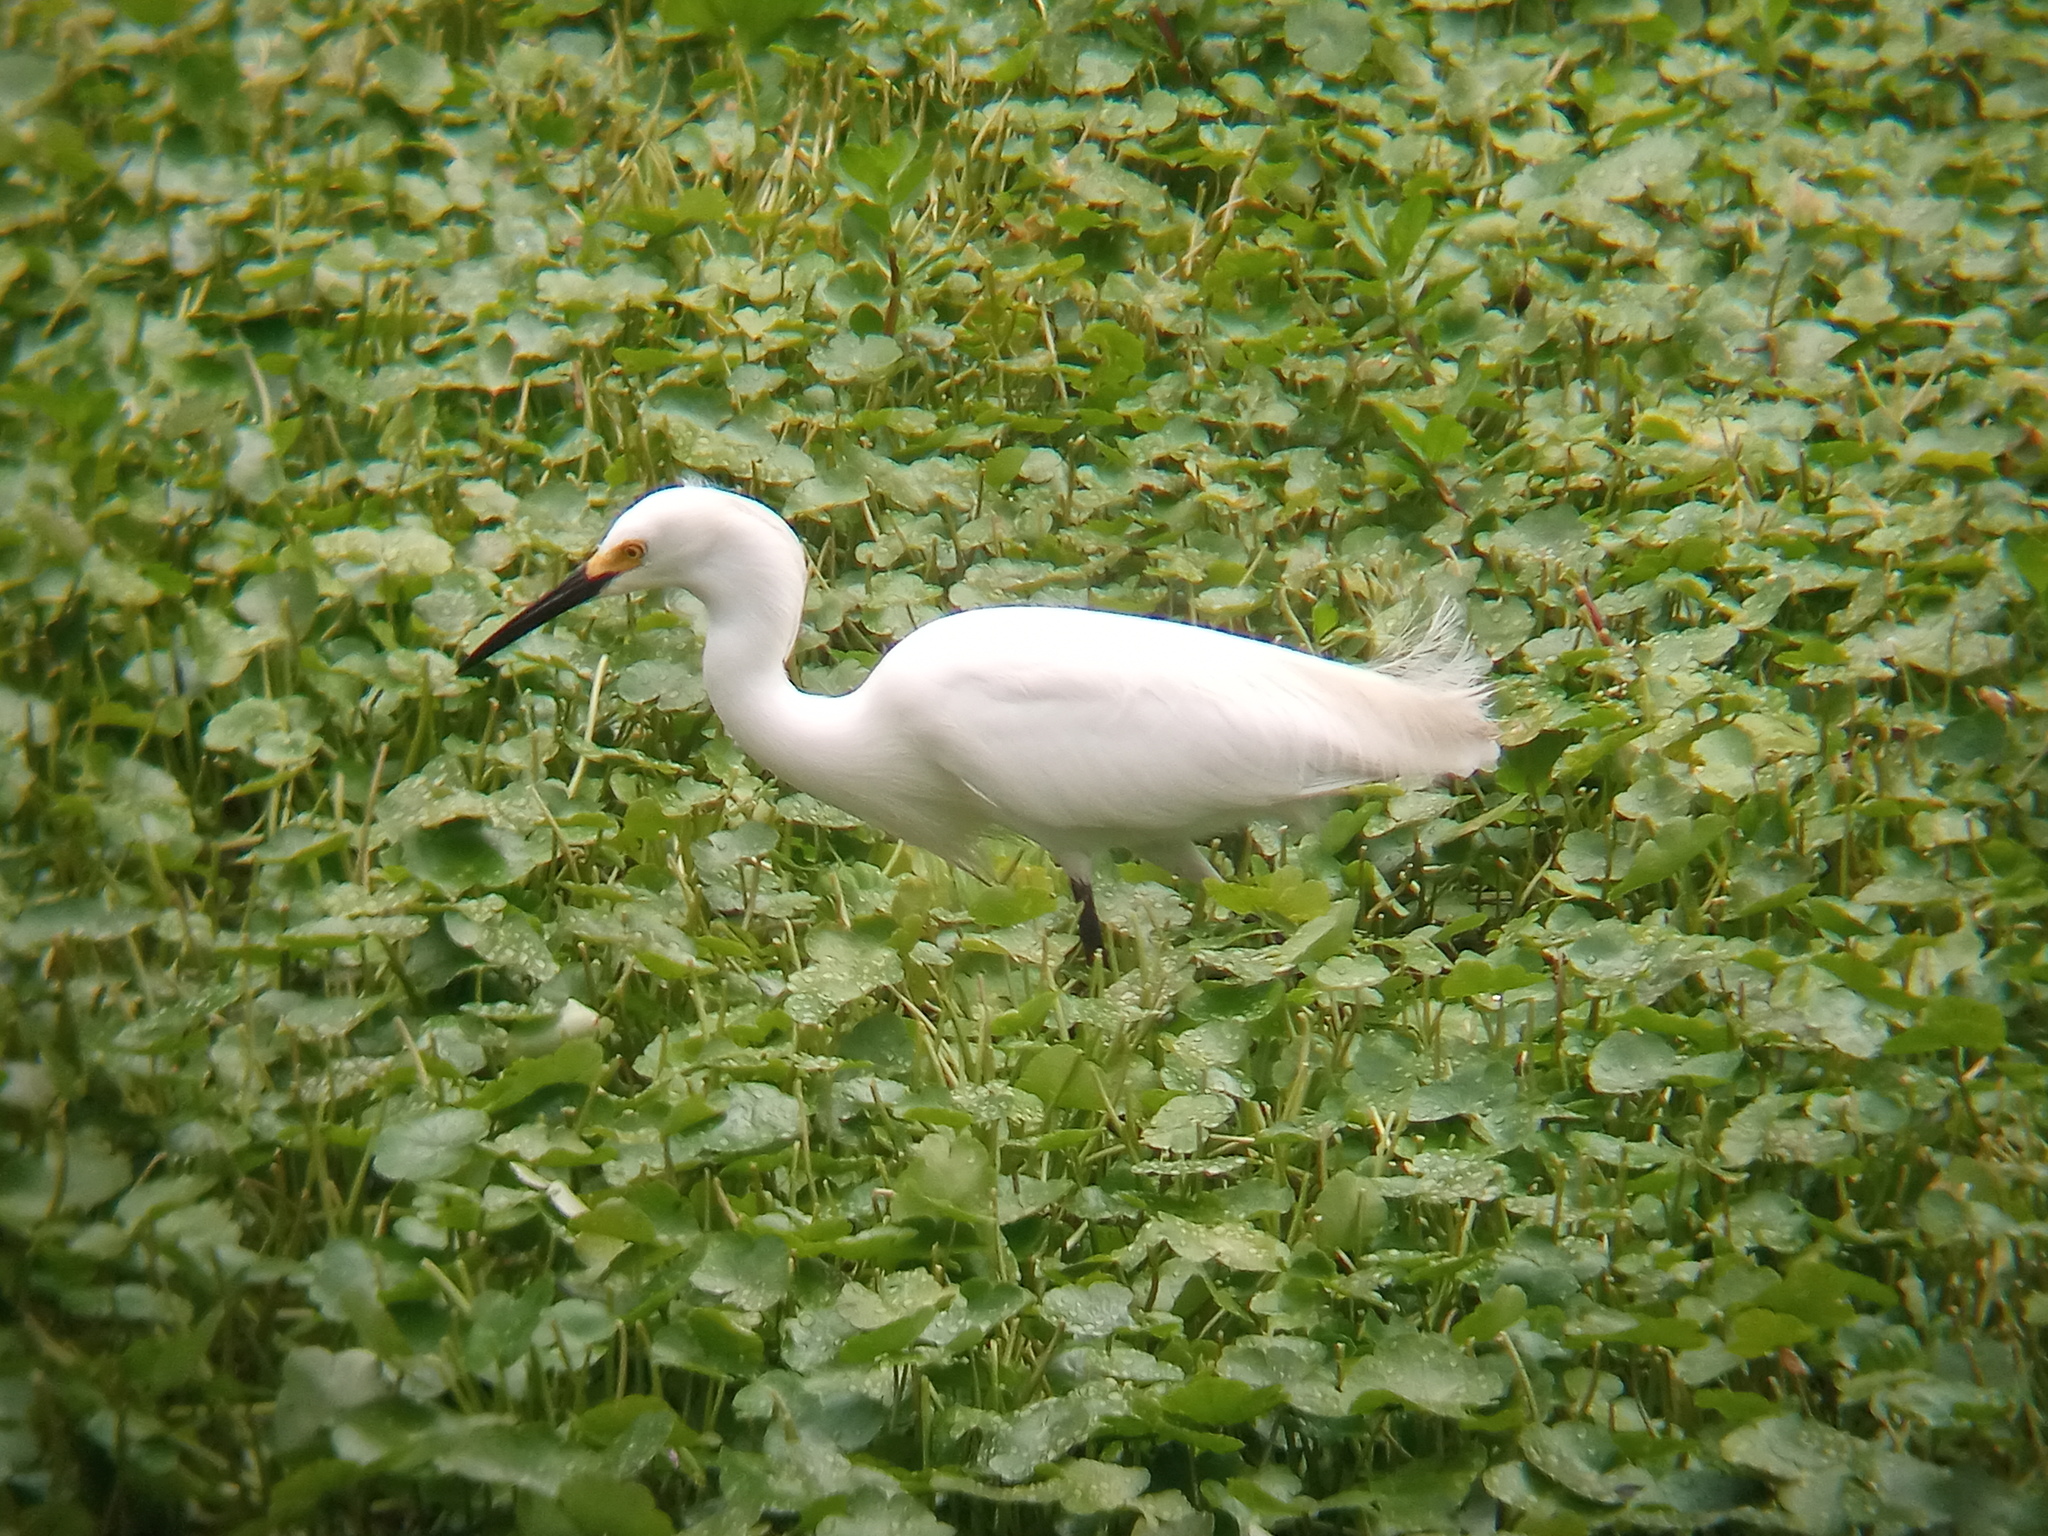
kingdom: Animalia
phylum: Chordata
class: Aves
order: Pelecaniformes
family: Ardeidae
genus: Egretta
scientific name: Egretta thula
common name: Snowy egret
